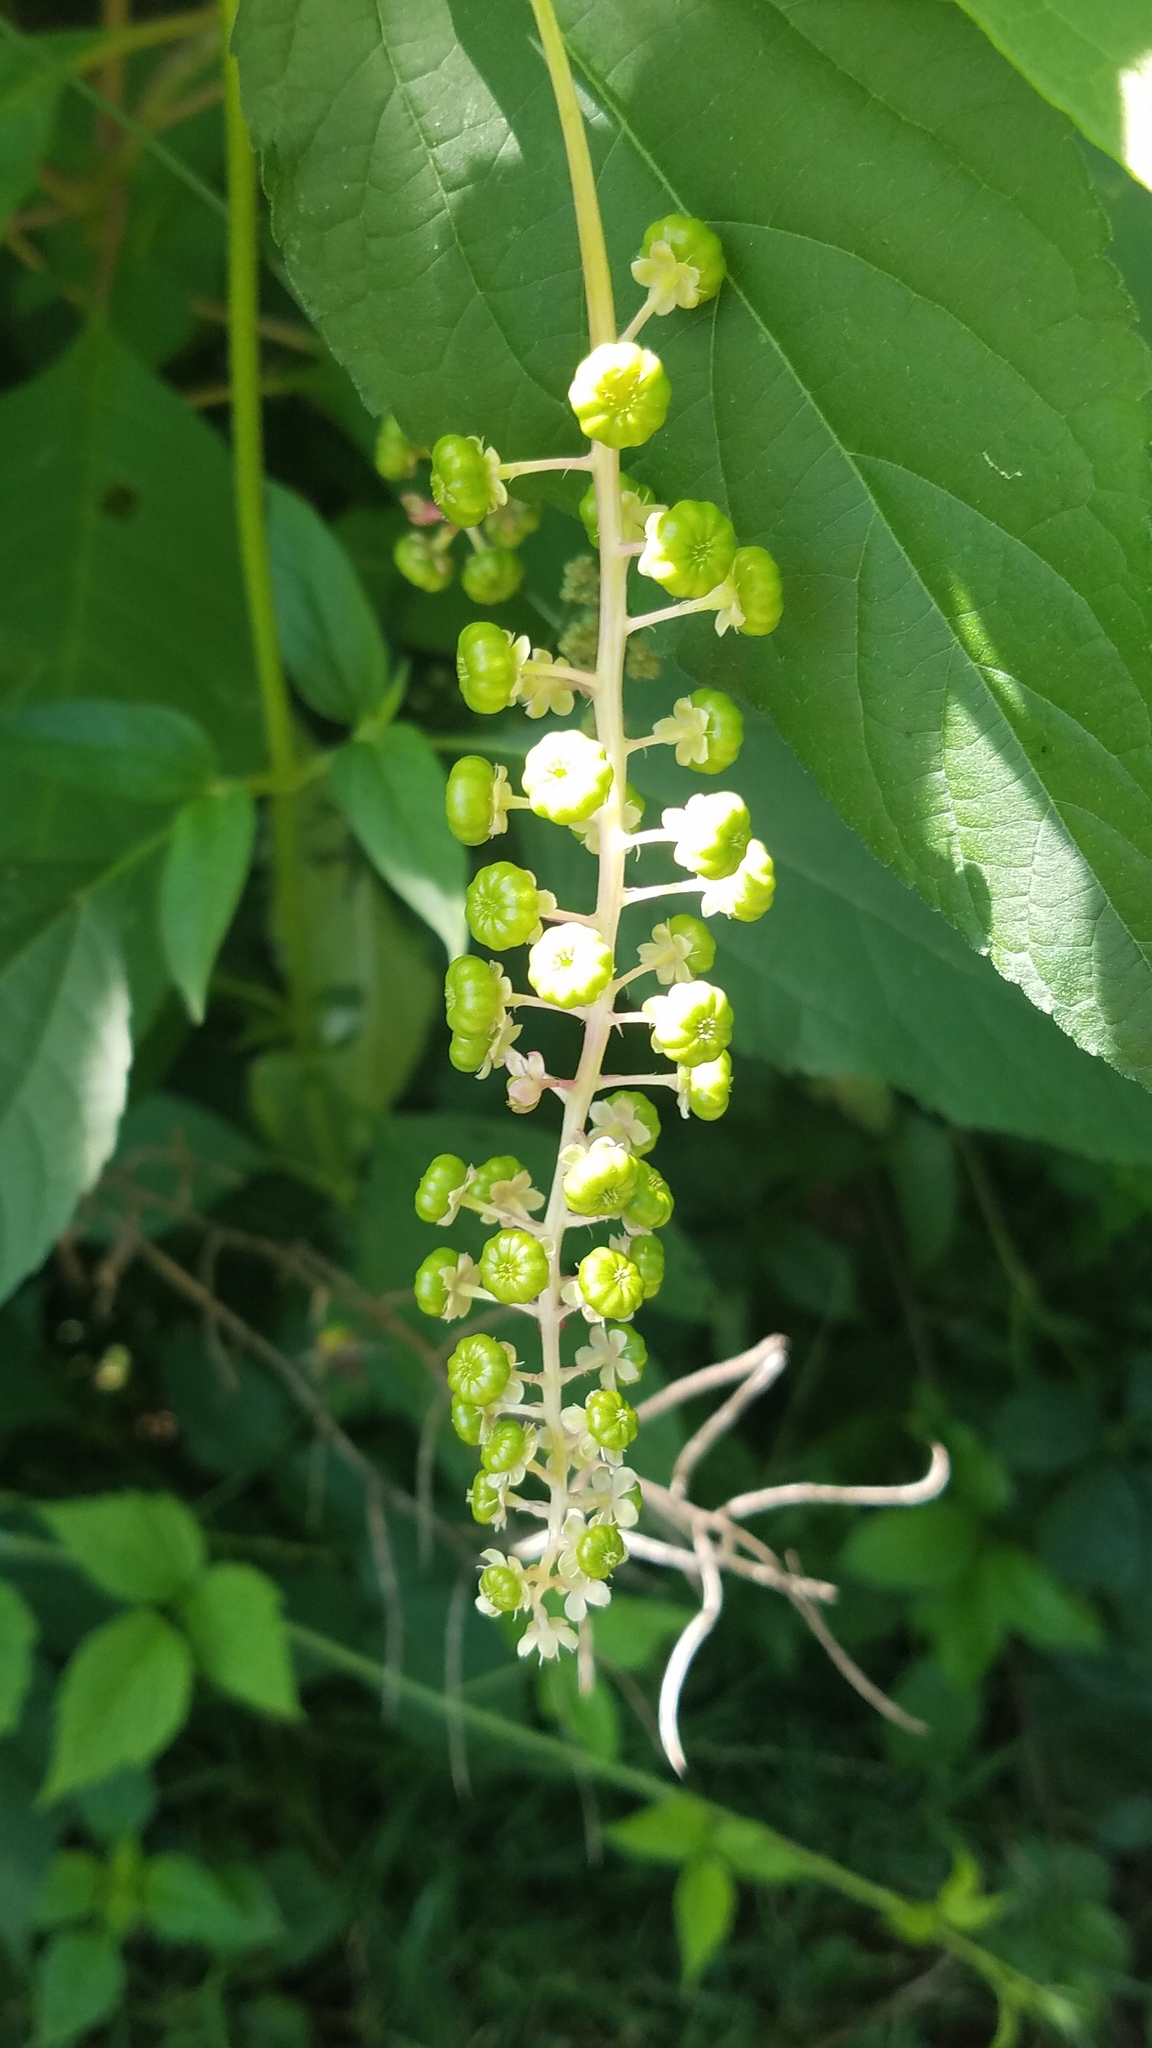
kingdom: Plantae
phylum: Tracheophyta
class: Magnoliopsida
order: Caryophyllales
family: Phytolaccaceae
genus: Phytolacca
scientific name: Phytolacca americana
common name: American pokeweed
